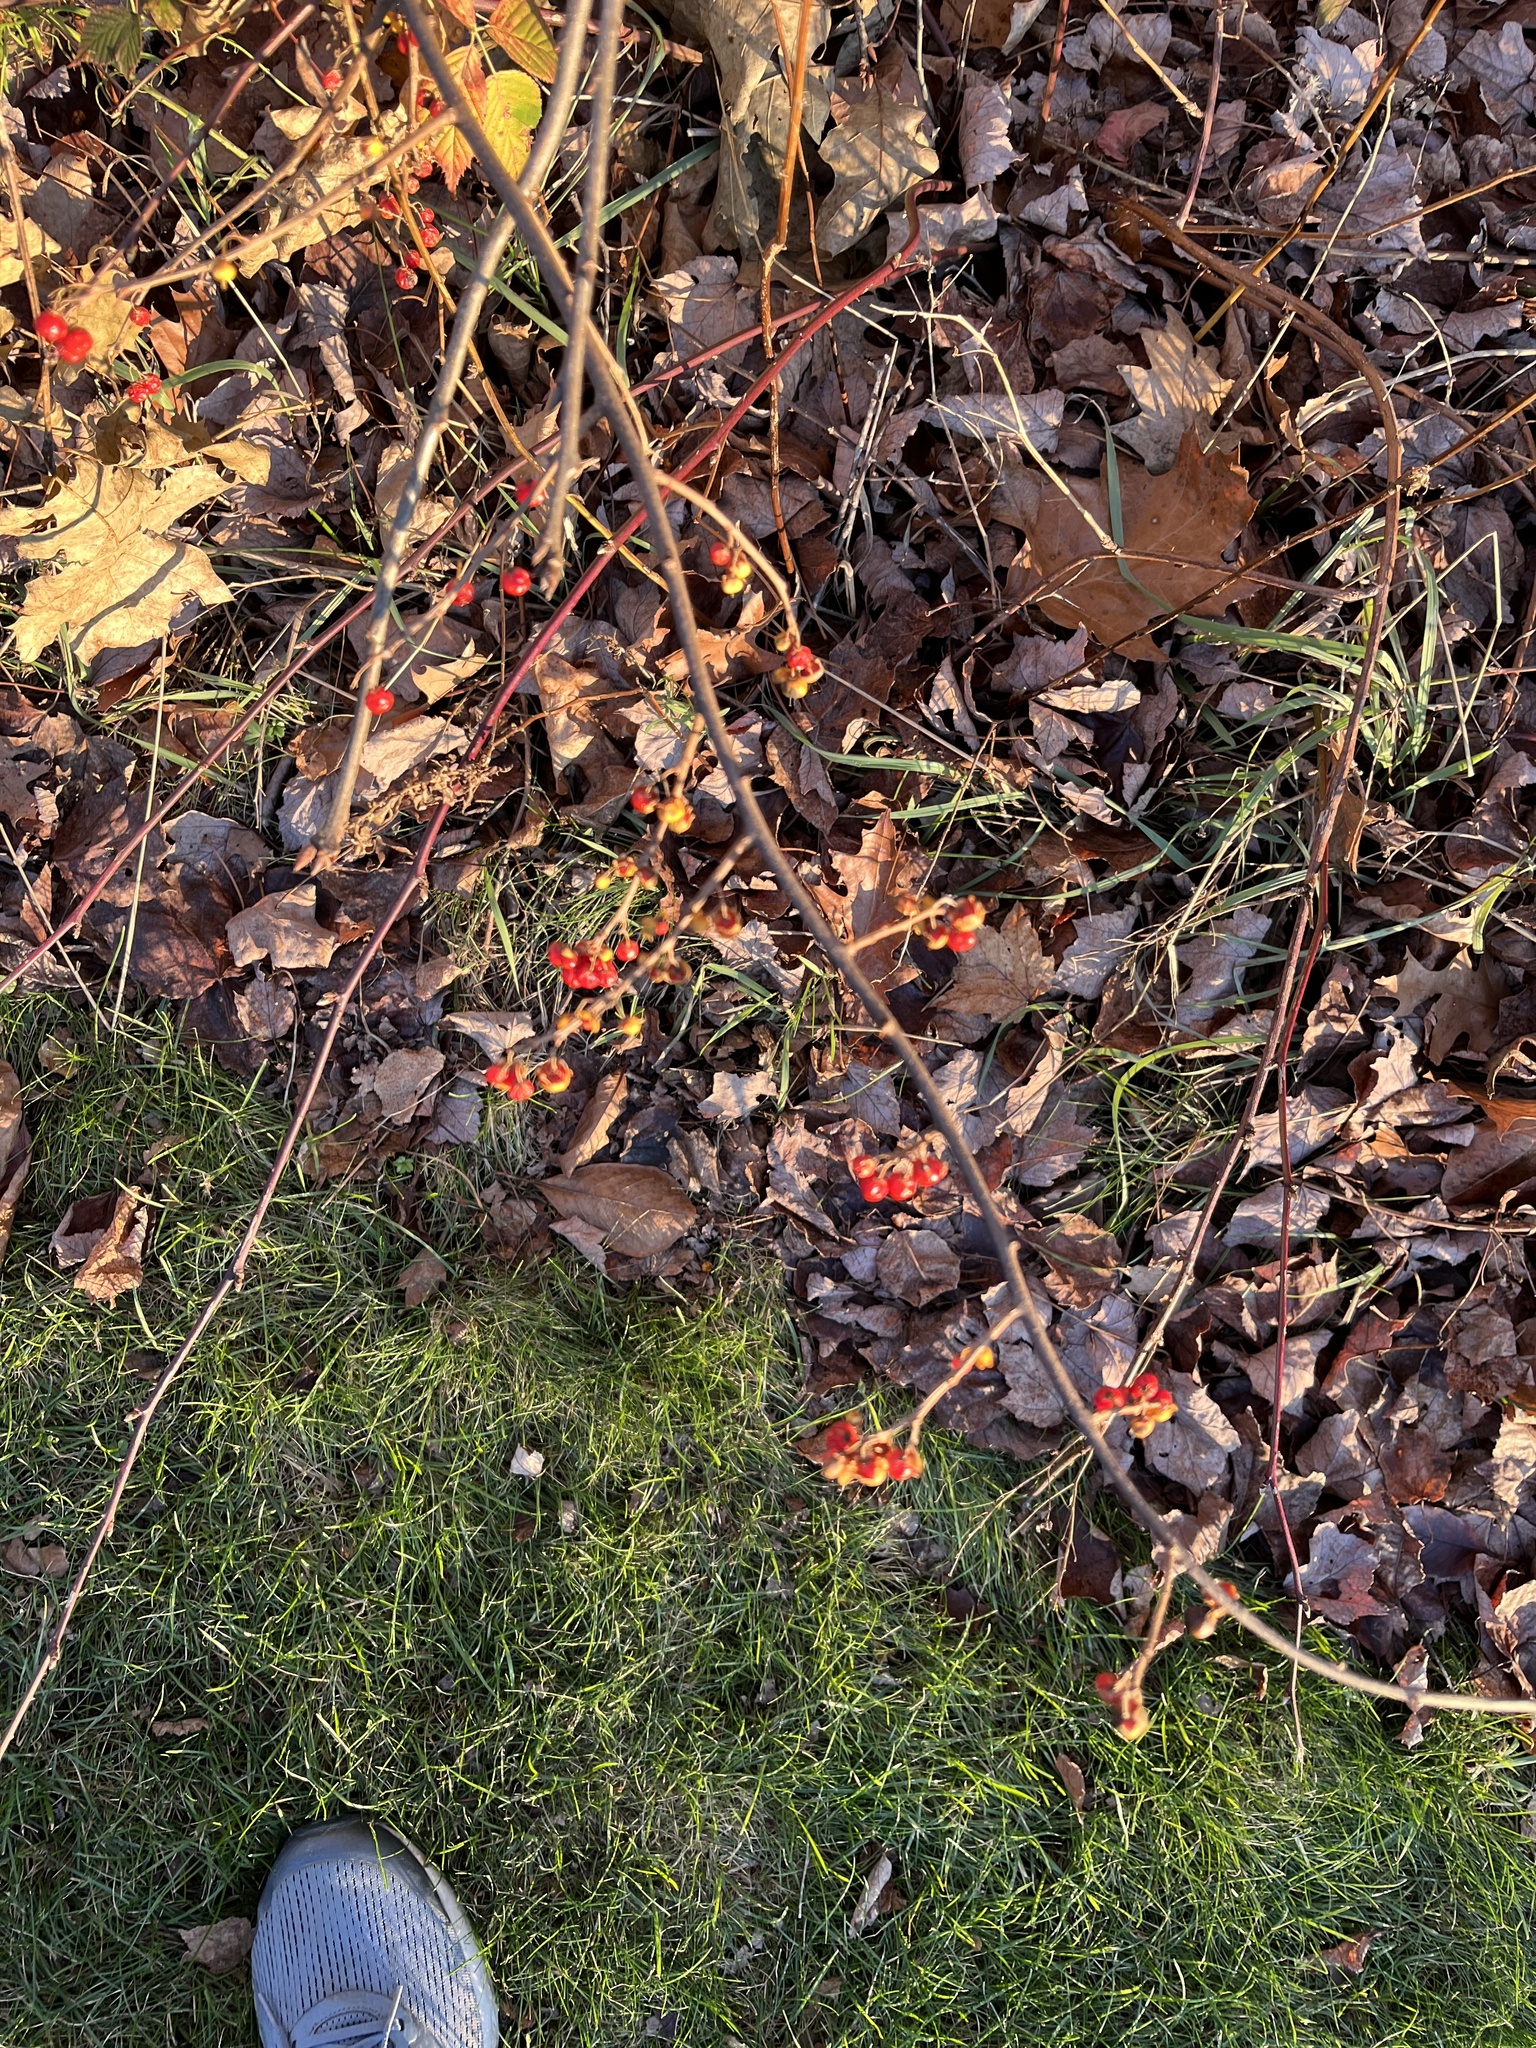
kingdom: Plantae
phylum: Tracheophyta
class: Magnoliopsida
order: Celastrales
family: Celastraceae
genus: Celastrus
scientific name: Celastrus orbiculatus
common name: Oriental bittersweet
